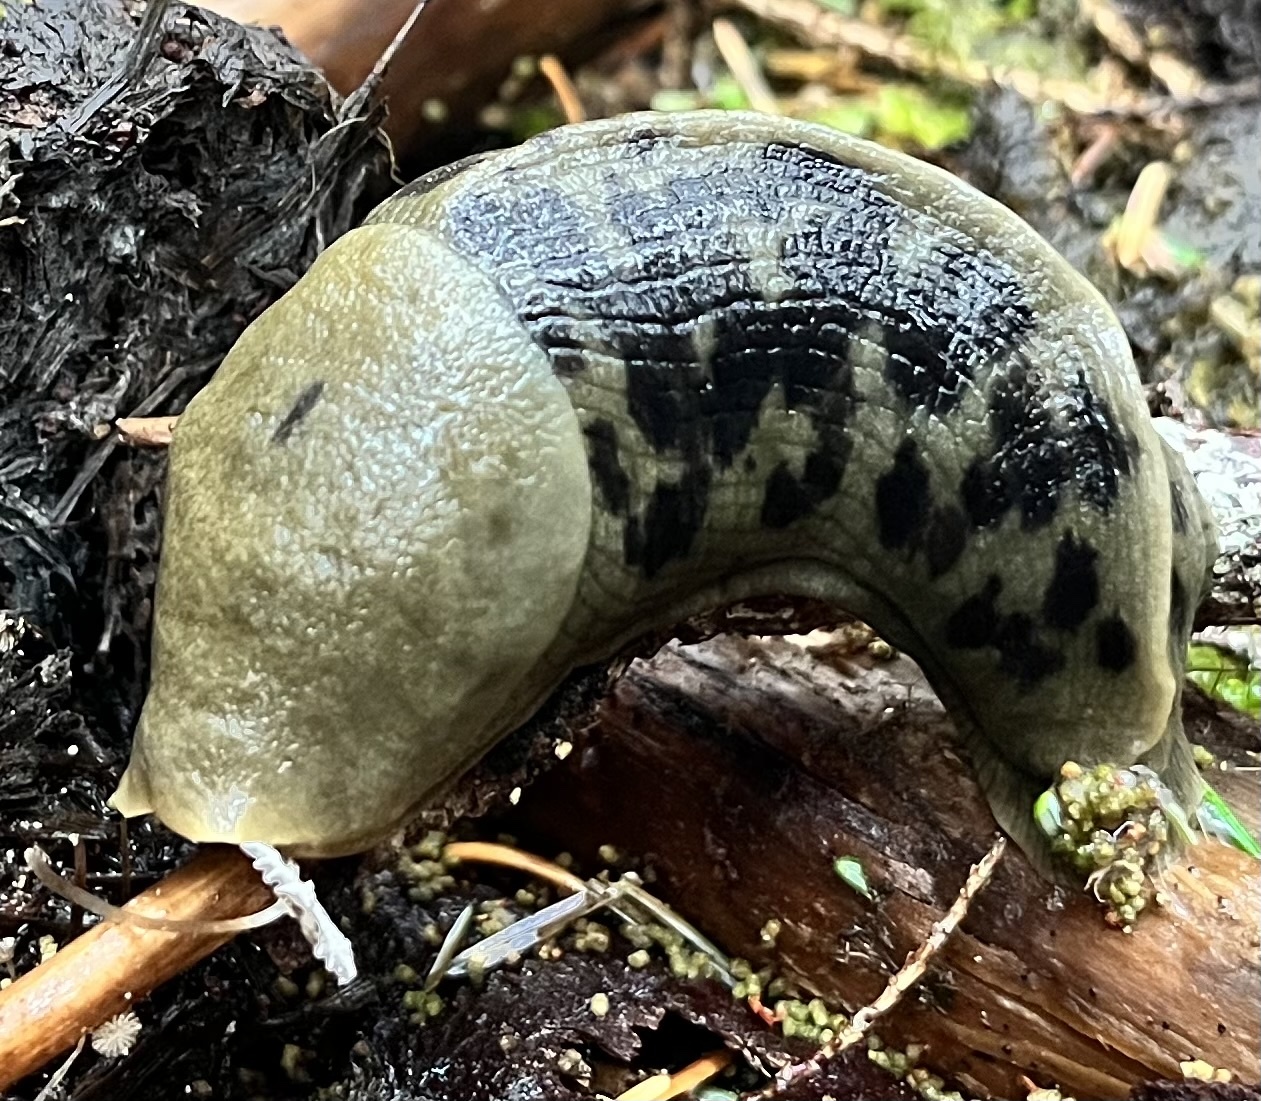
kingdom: Animalia
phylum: Mollusca
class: Gastropoda
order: Stylommatophora
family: Ariolimacidae
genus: Ariolimax
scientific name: Ariolimax columbianus
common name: Pacific banana slug
